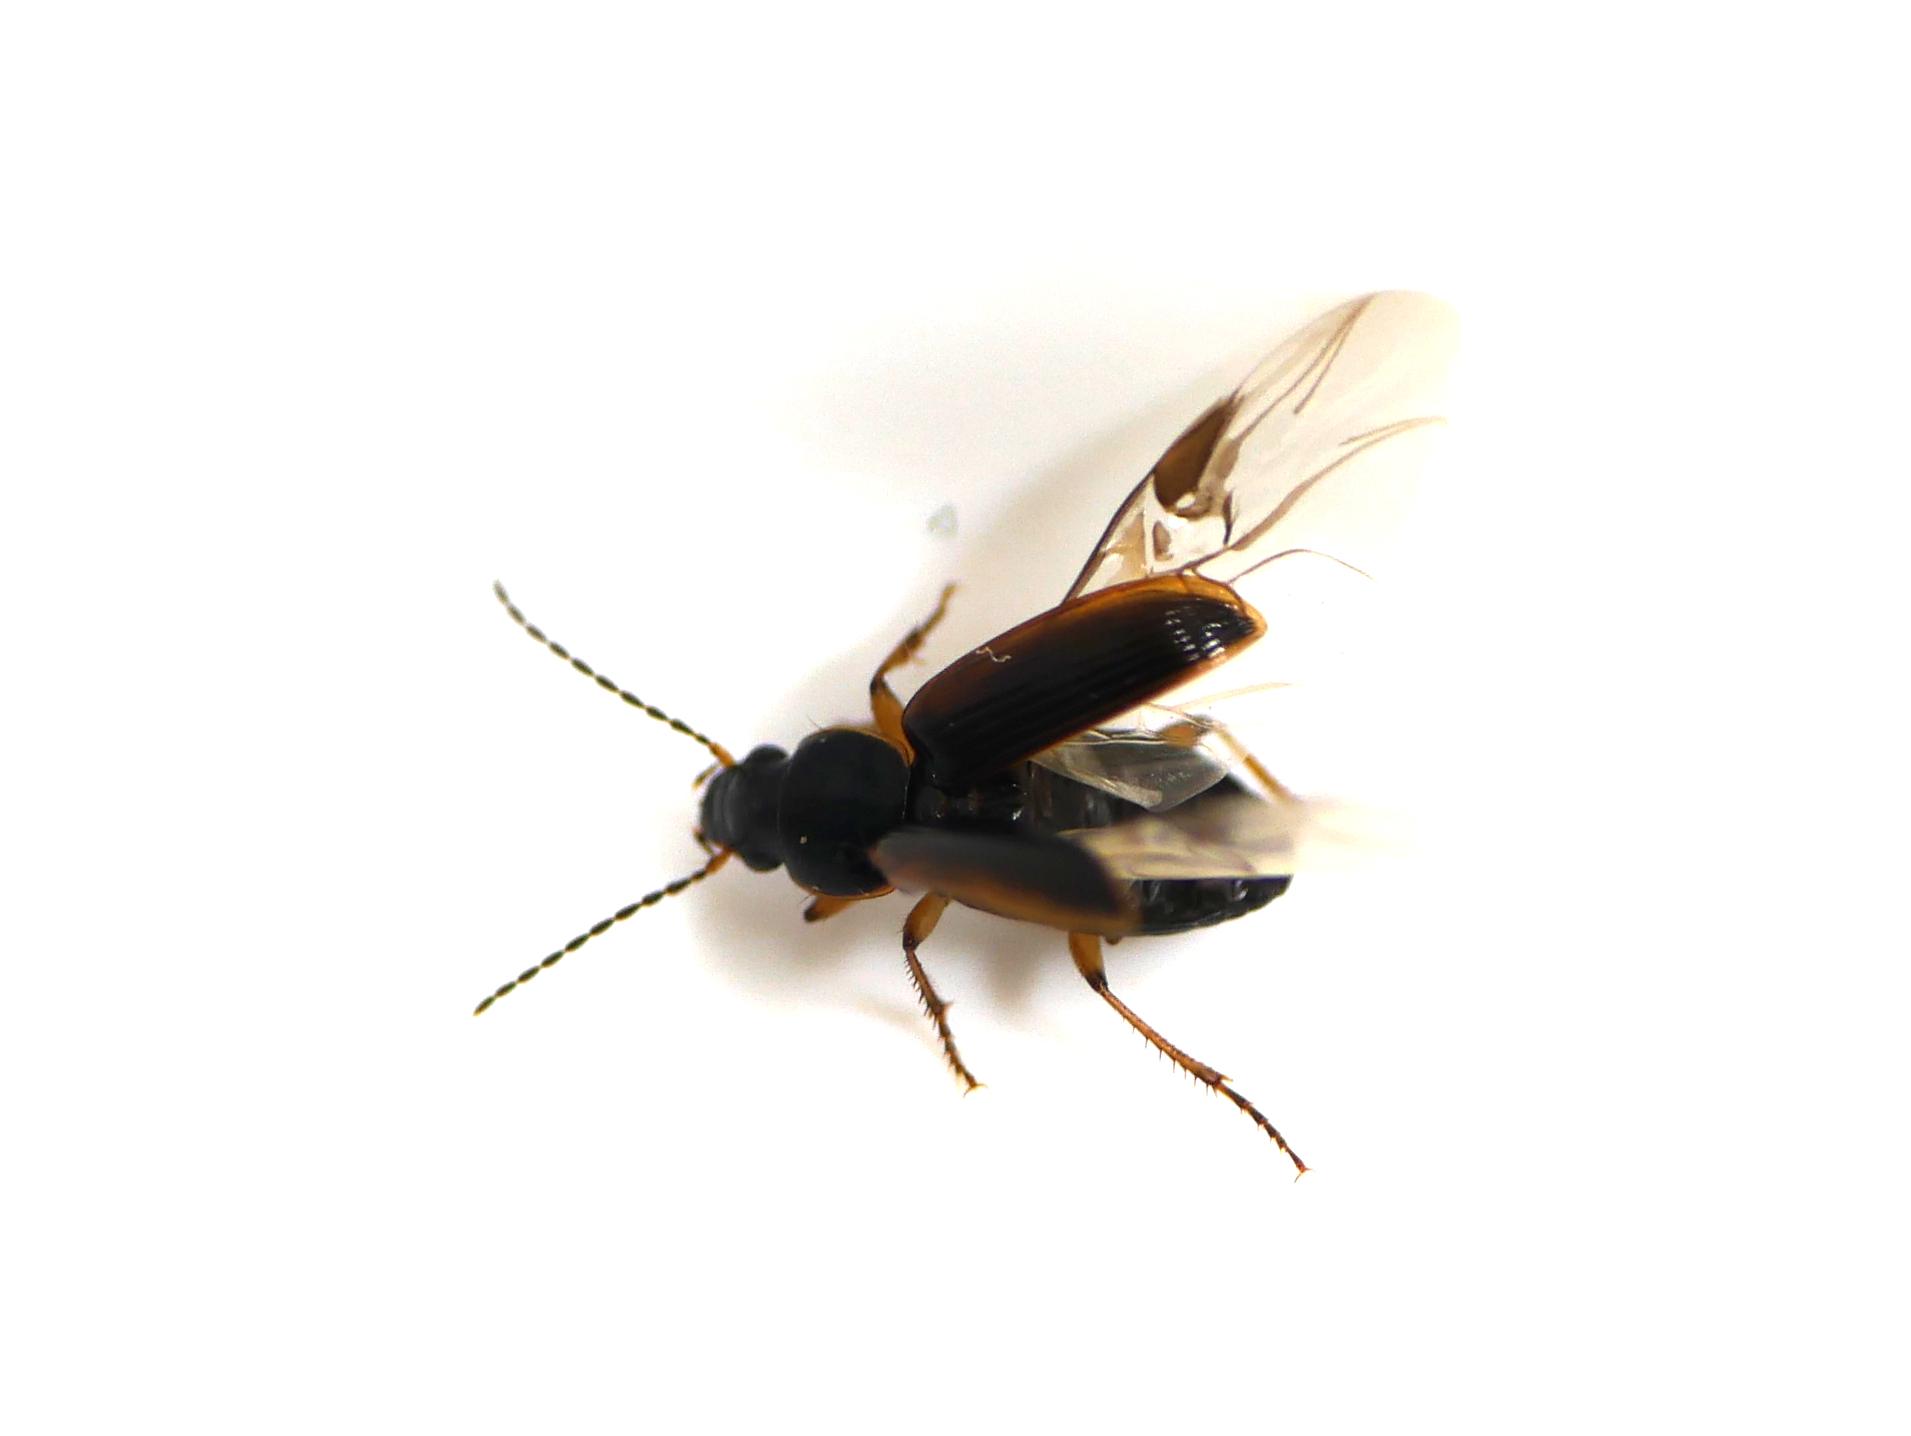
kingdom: Animalia
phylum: Arthropoda
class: Insecta
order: Coleoptera
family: Carabidae
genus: Stenolophus
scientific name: Stenolophus mixtus
